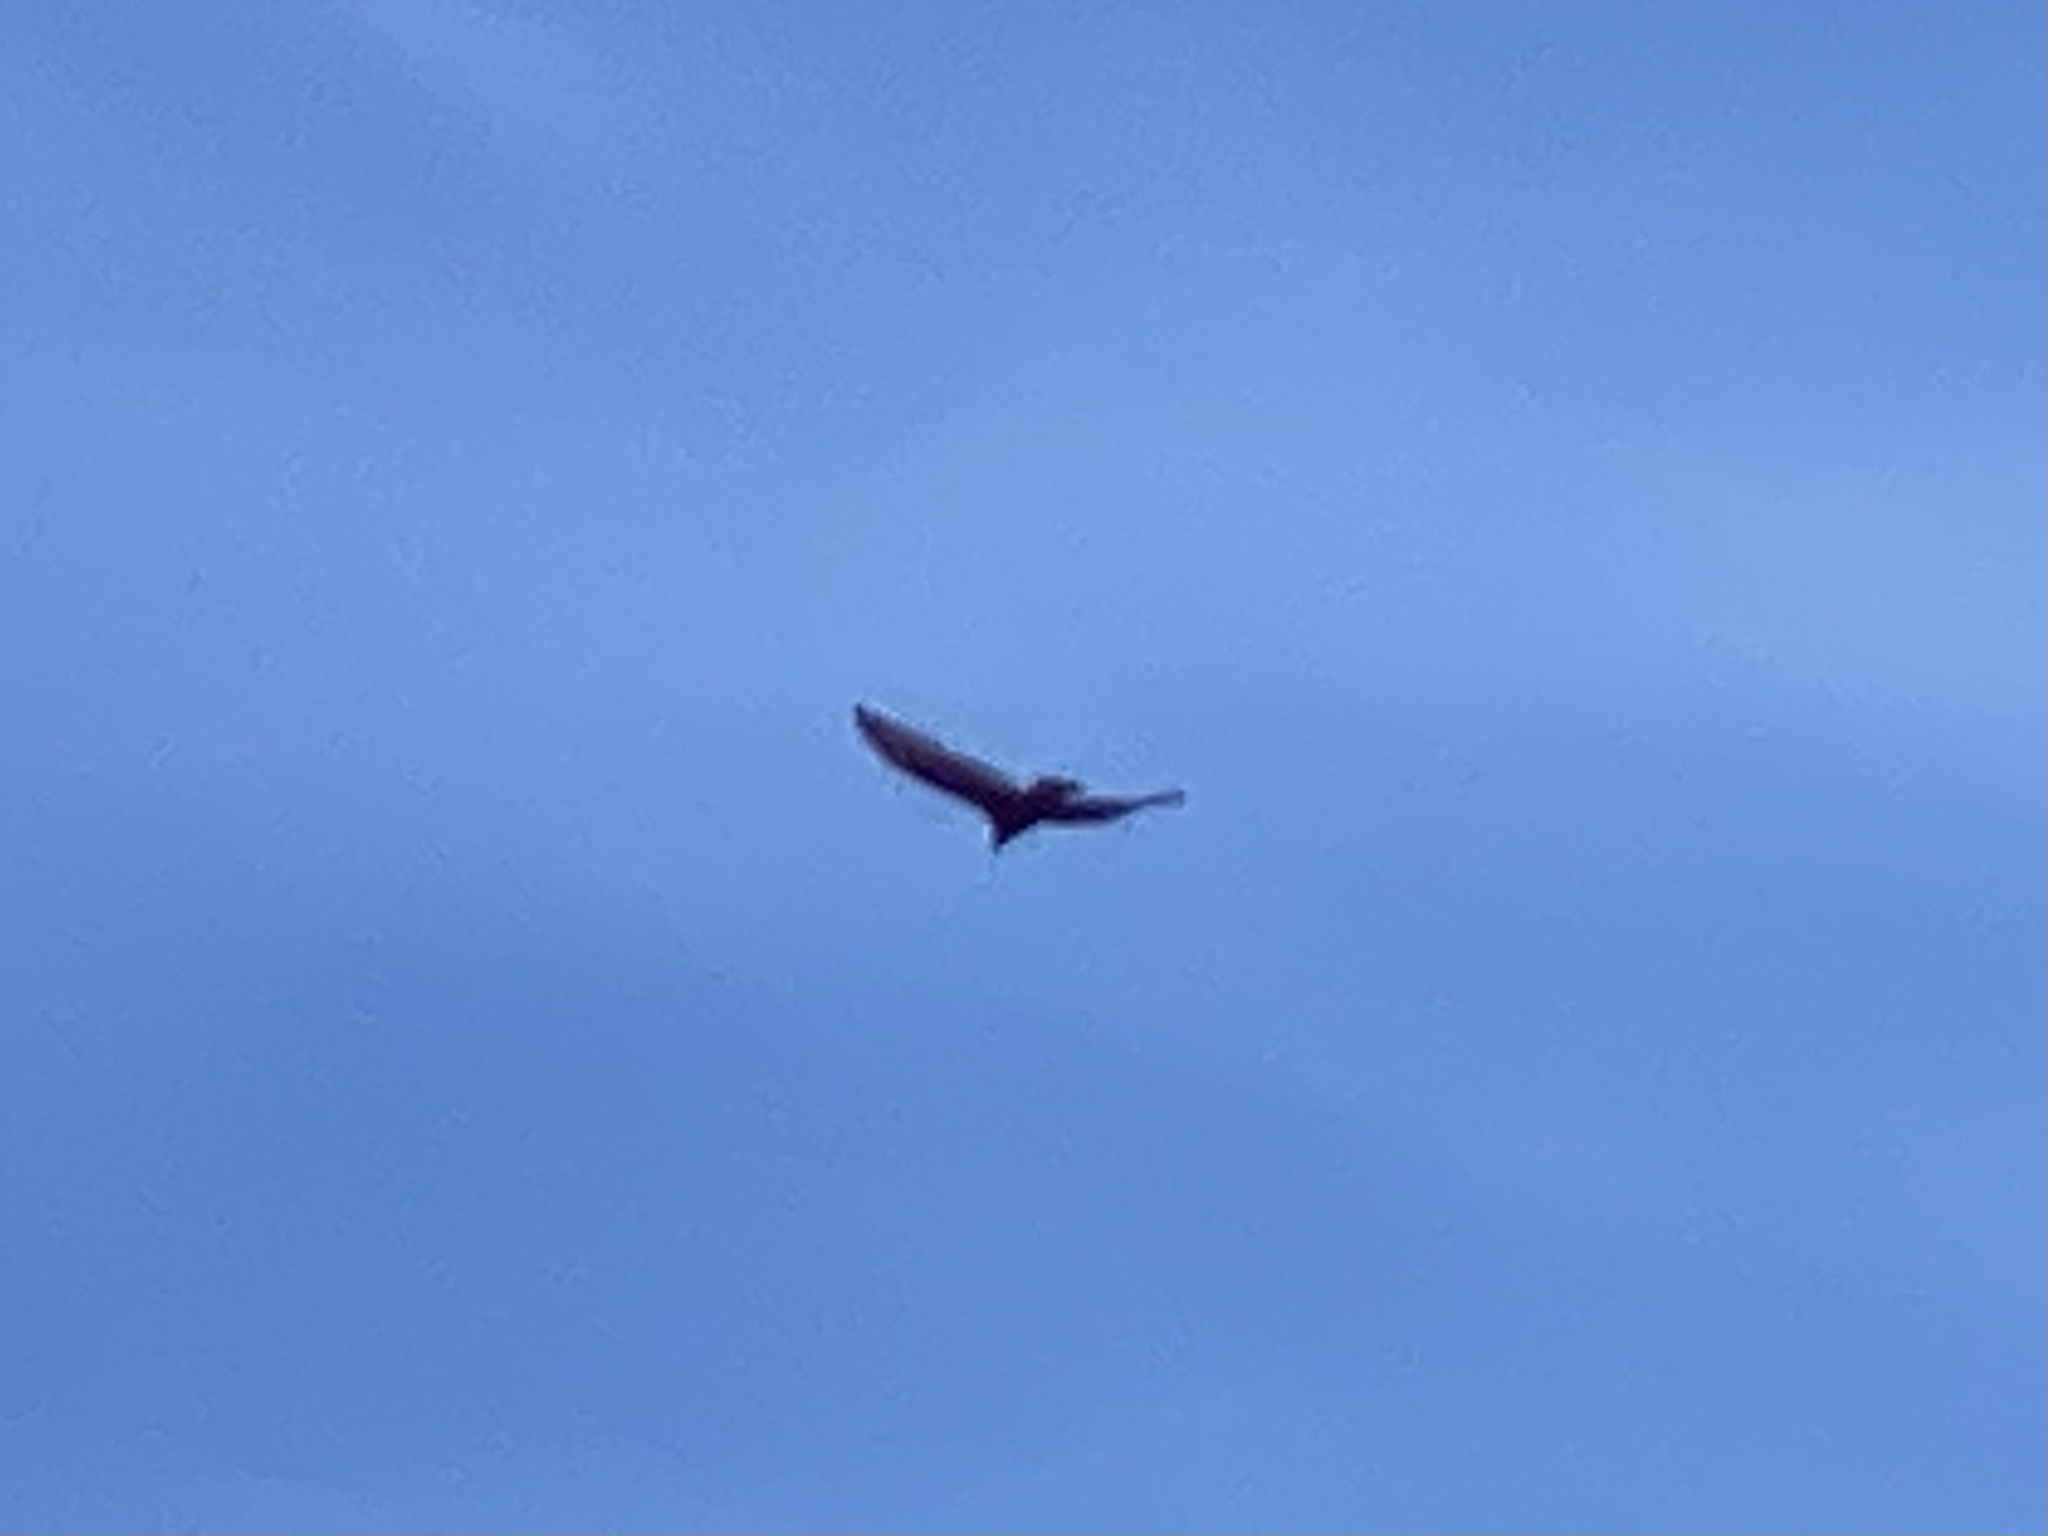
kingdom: Animalia
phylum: Chordata
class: Aves
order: Accipitriformes
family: Cathartidae
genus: Cathartes
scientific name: Cathartes aura
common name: Turkey vulture
